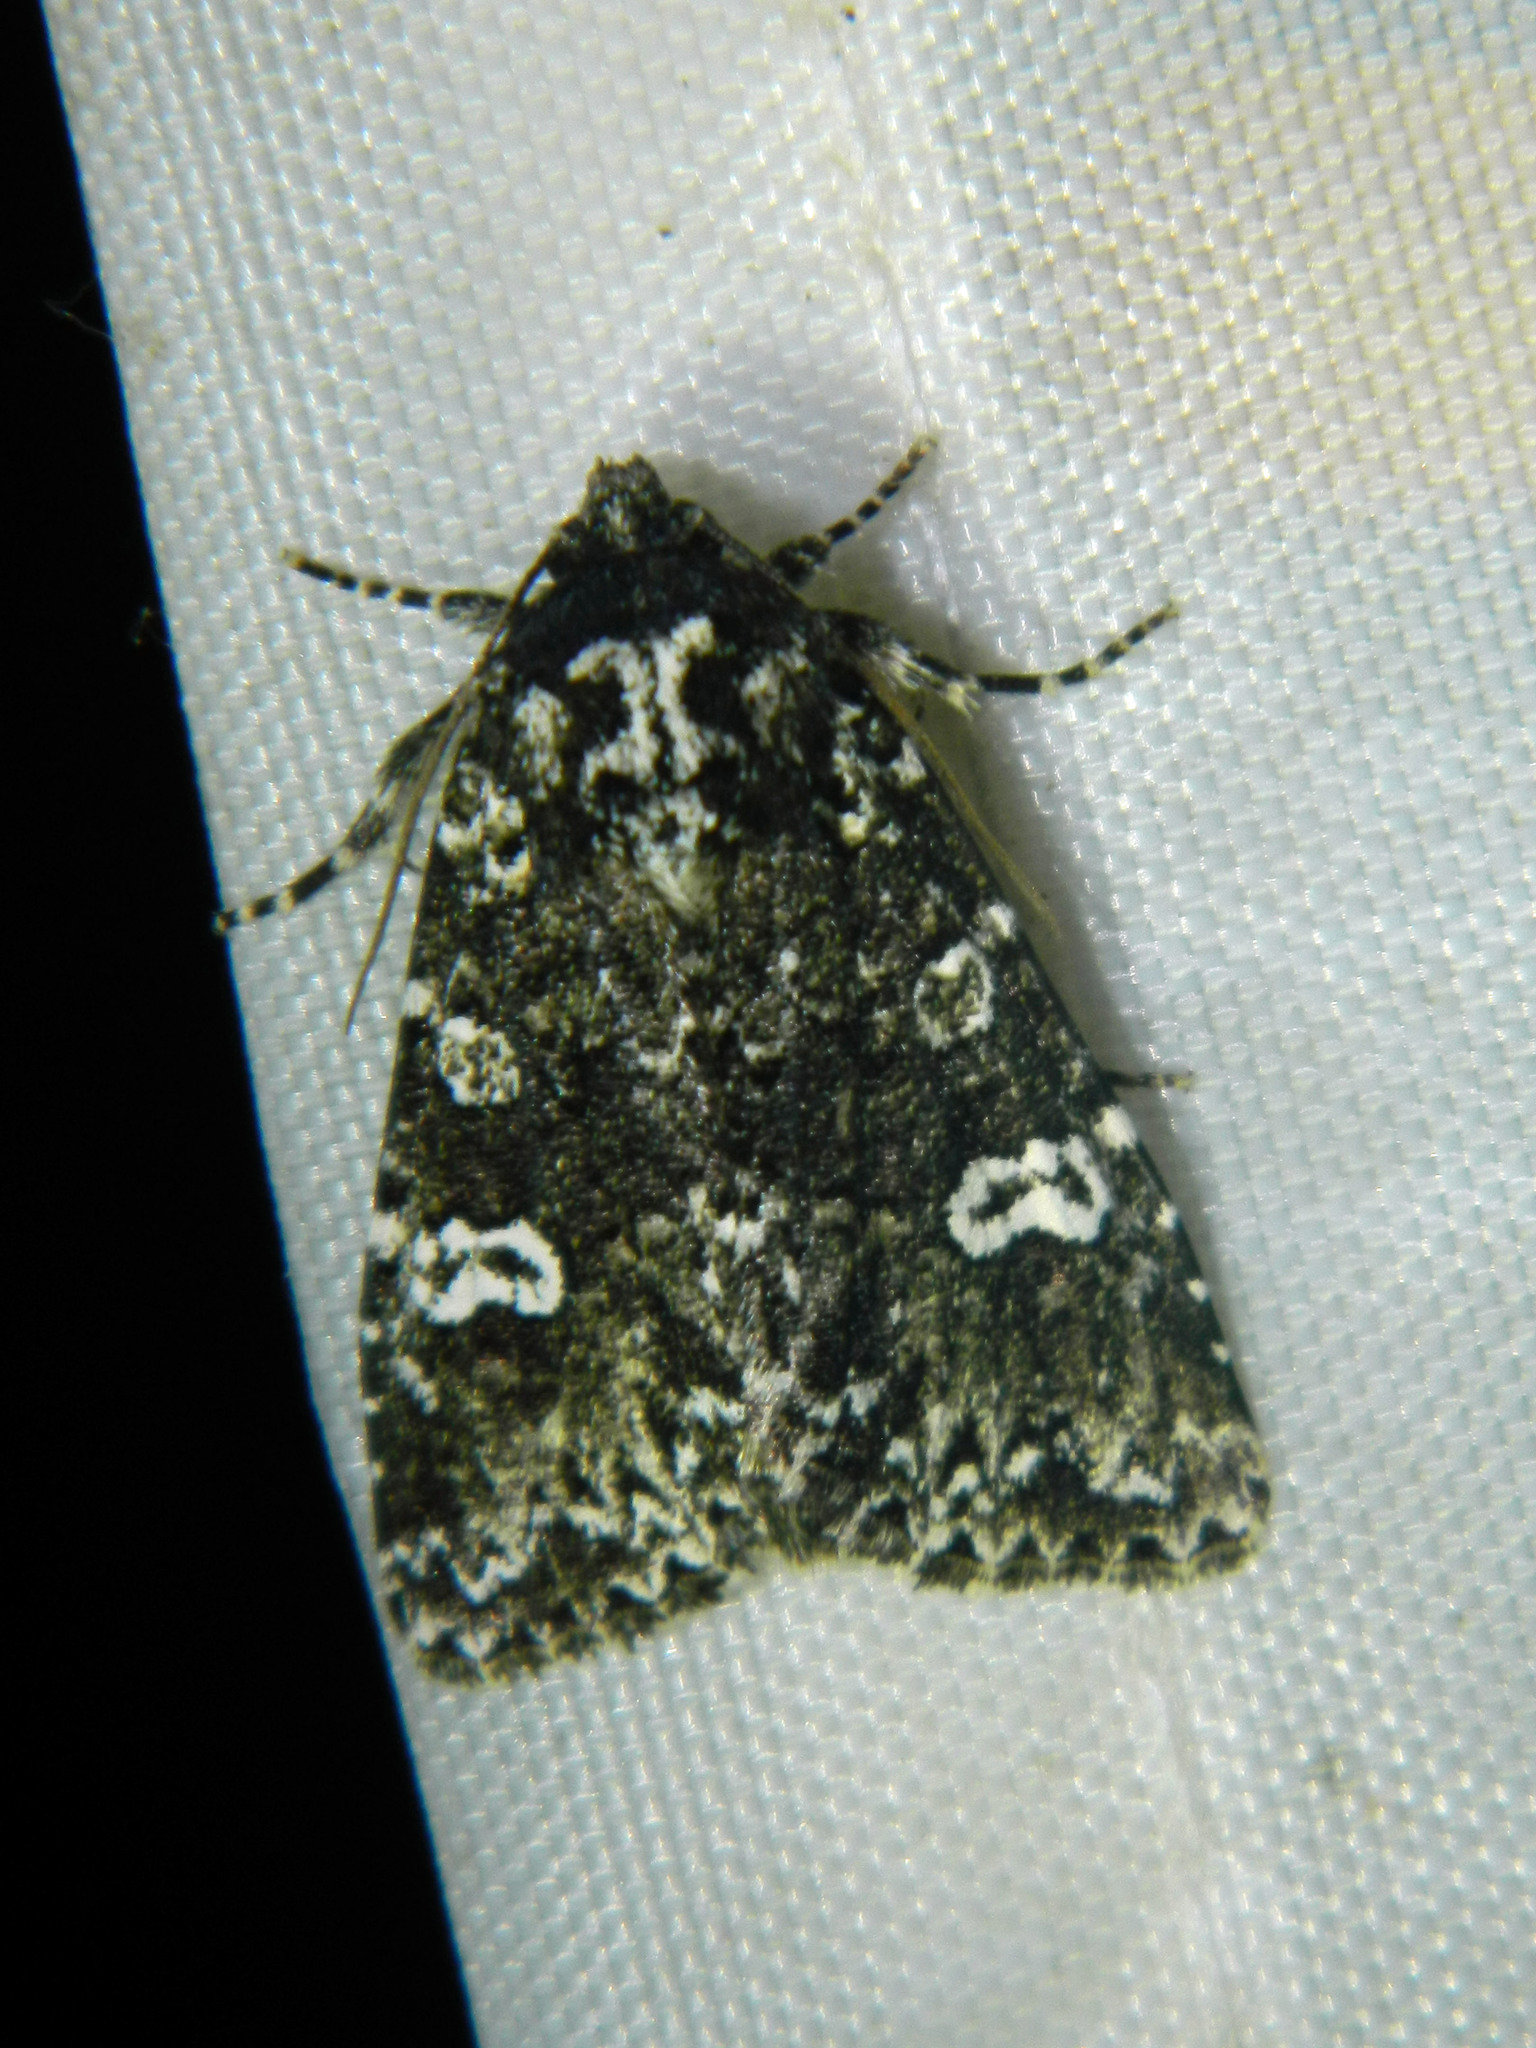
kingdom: Animalia
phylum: Arthropoda
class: Insecta
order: Lepidoptera
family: Noctuidae
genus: Melanchra
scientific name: Melanchra adjuncta
